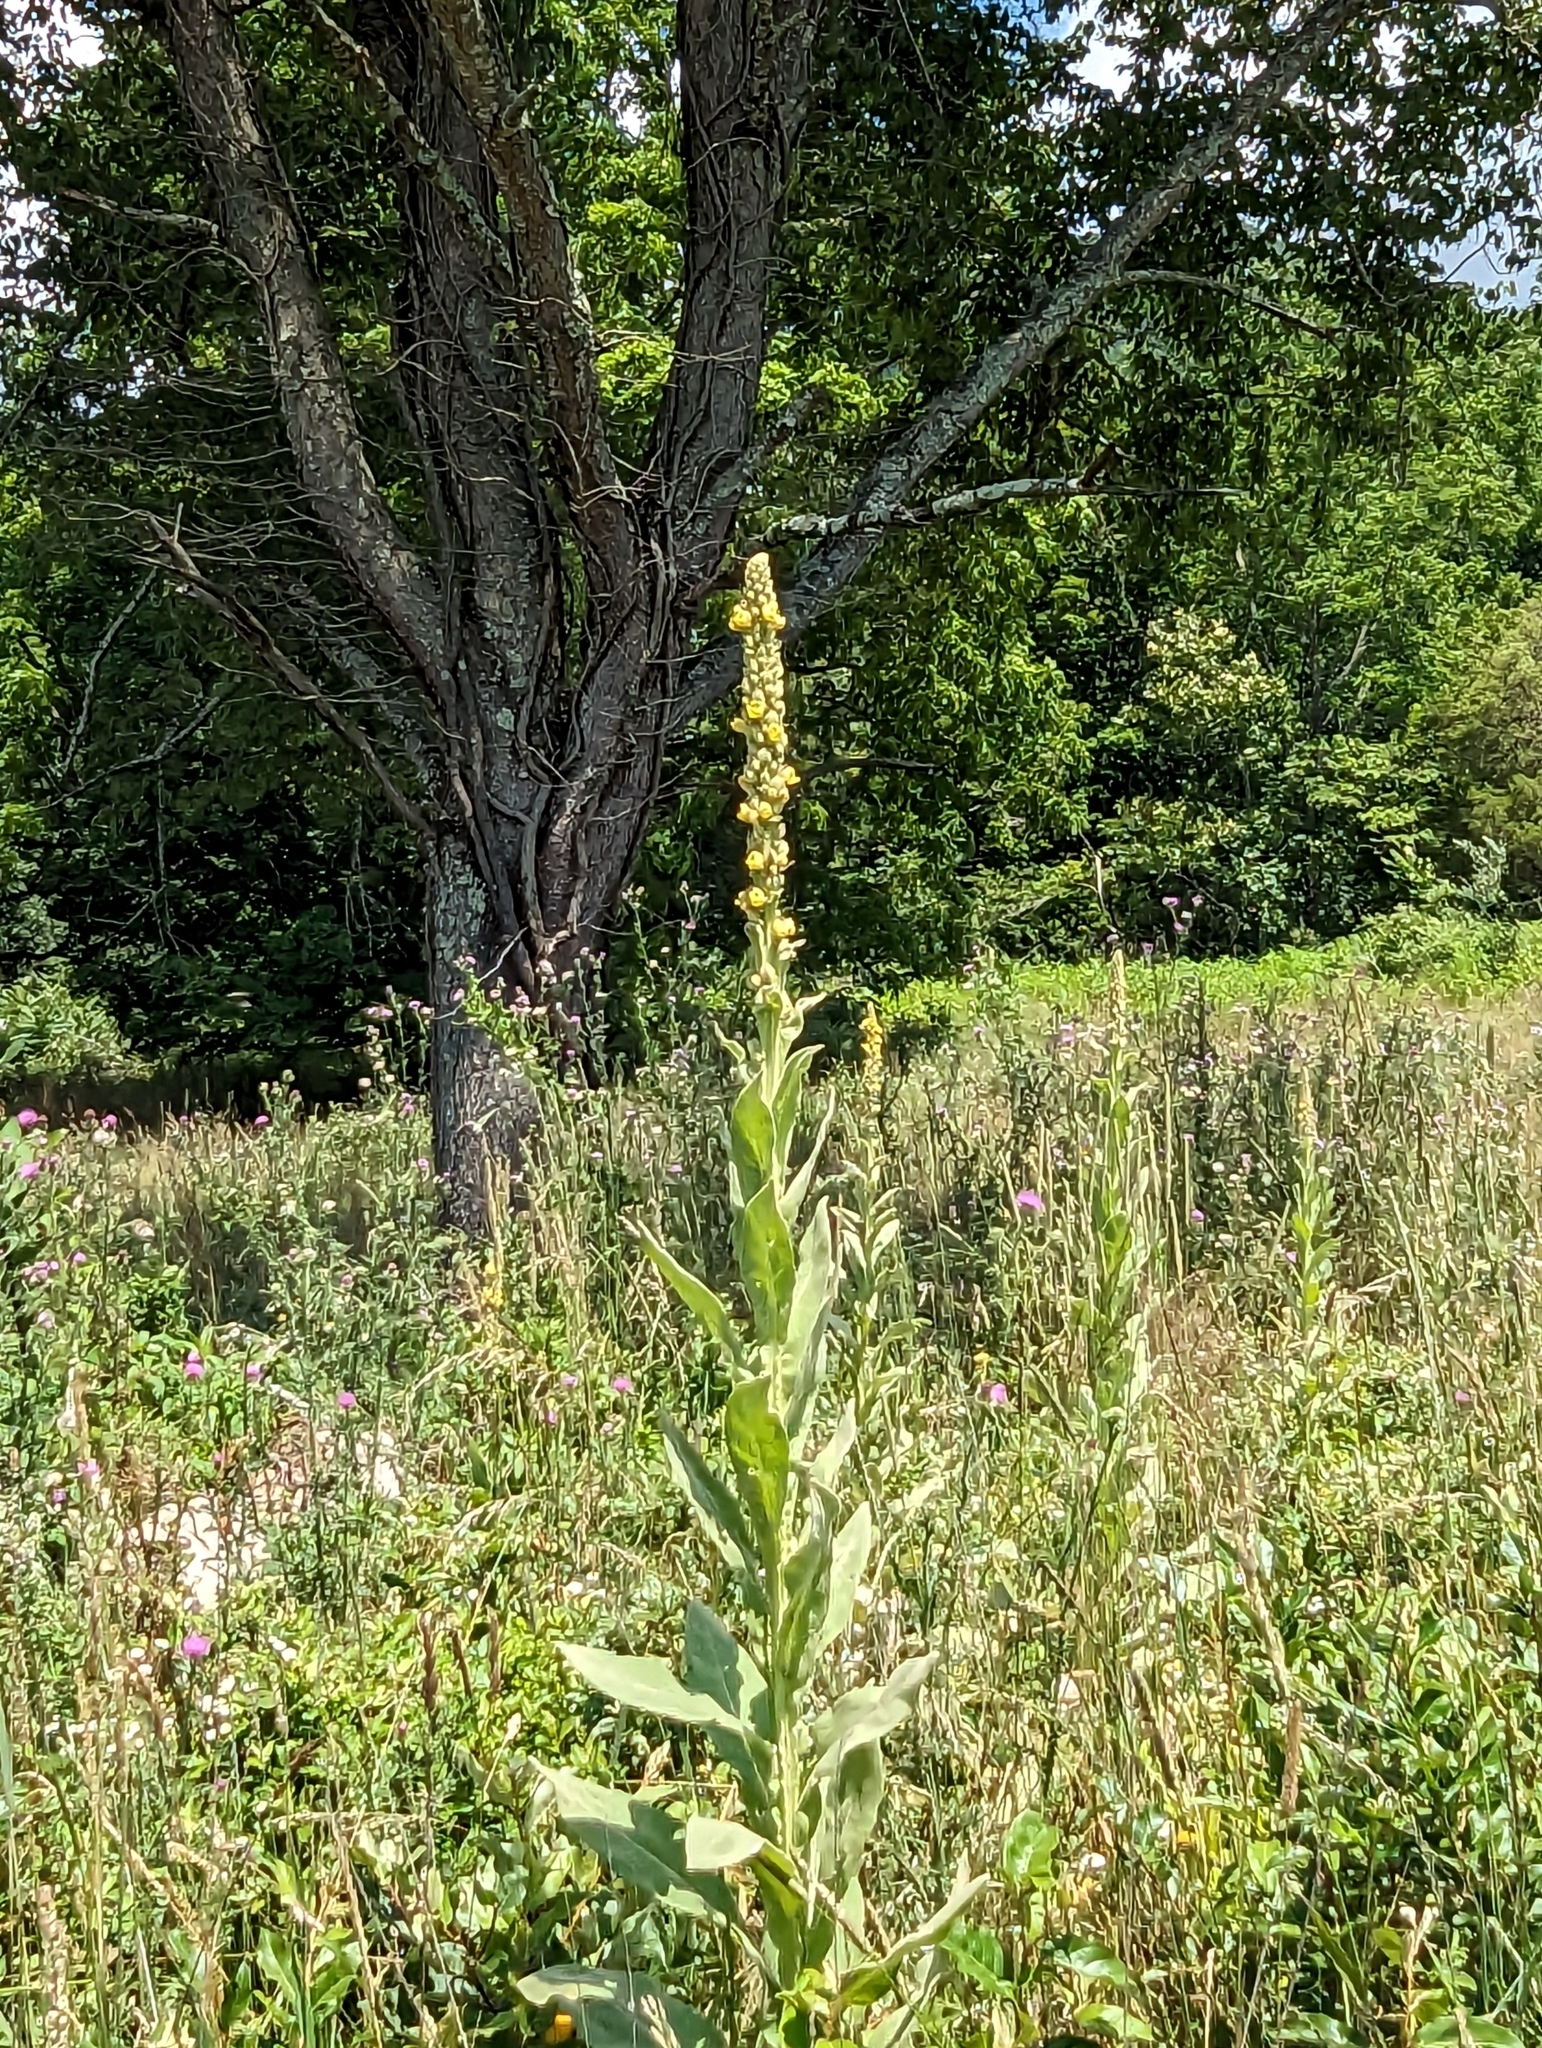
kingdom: Plantae
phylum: Tracheophyta
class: Magnoliopsida
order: Lamiales
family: Scrophulariaceae
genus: Verbascum
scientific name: Verbascum thapsus
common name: Common mullein
